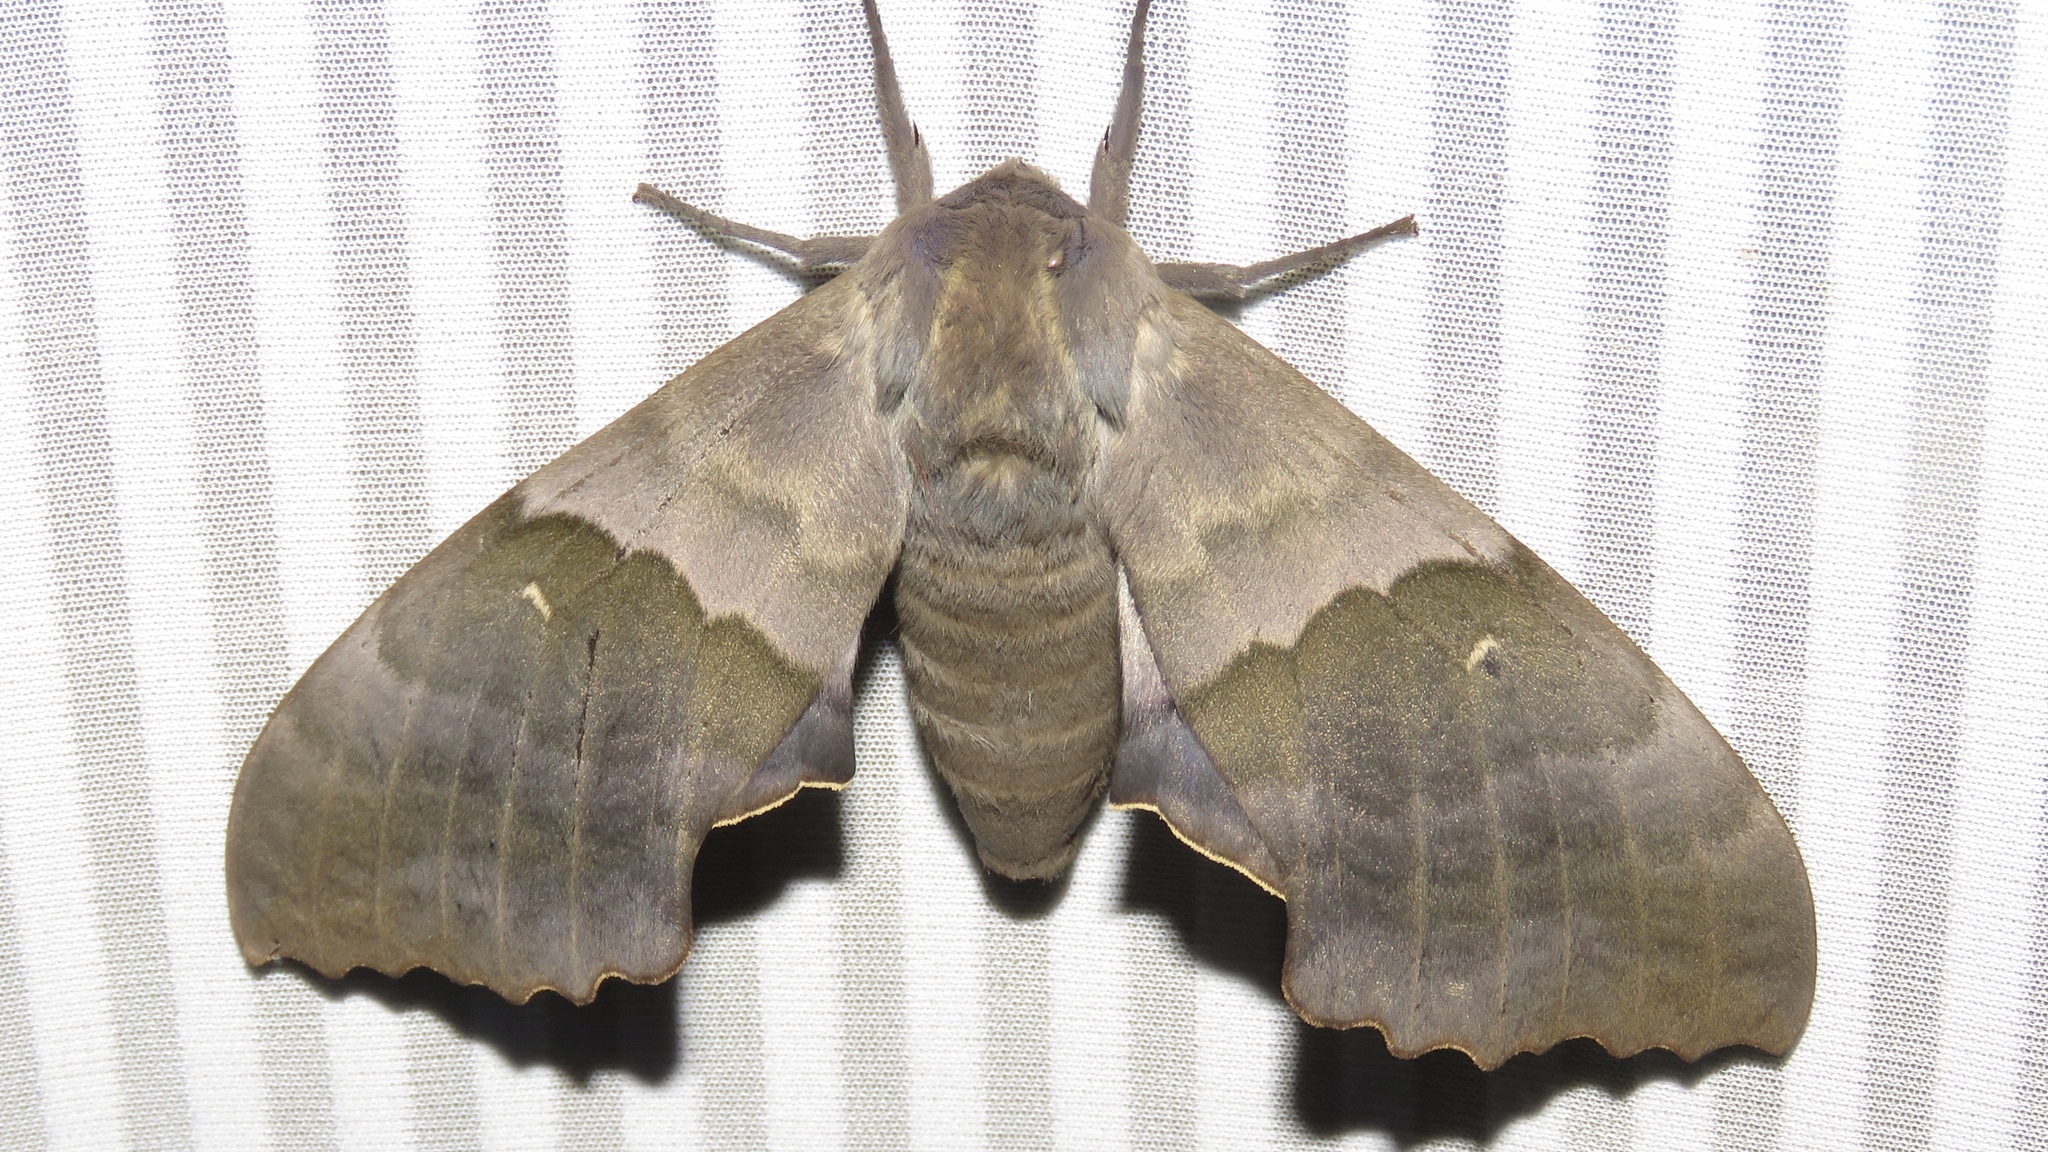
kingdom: Animalia
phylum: Arthropoda
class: Insecta
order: Lepidoptera
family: Sphingidae
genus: Pachysphinx
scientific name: Pachysphinx modesta
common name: Big poplar sphinx
